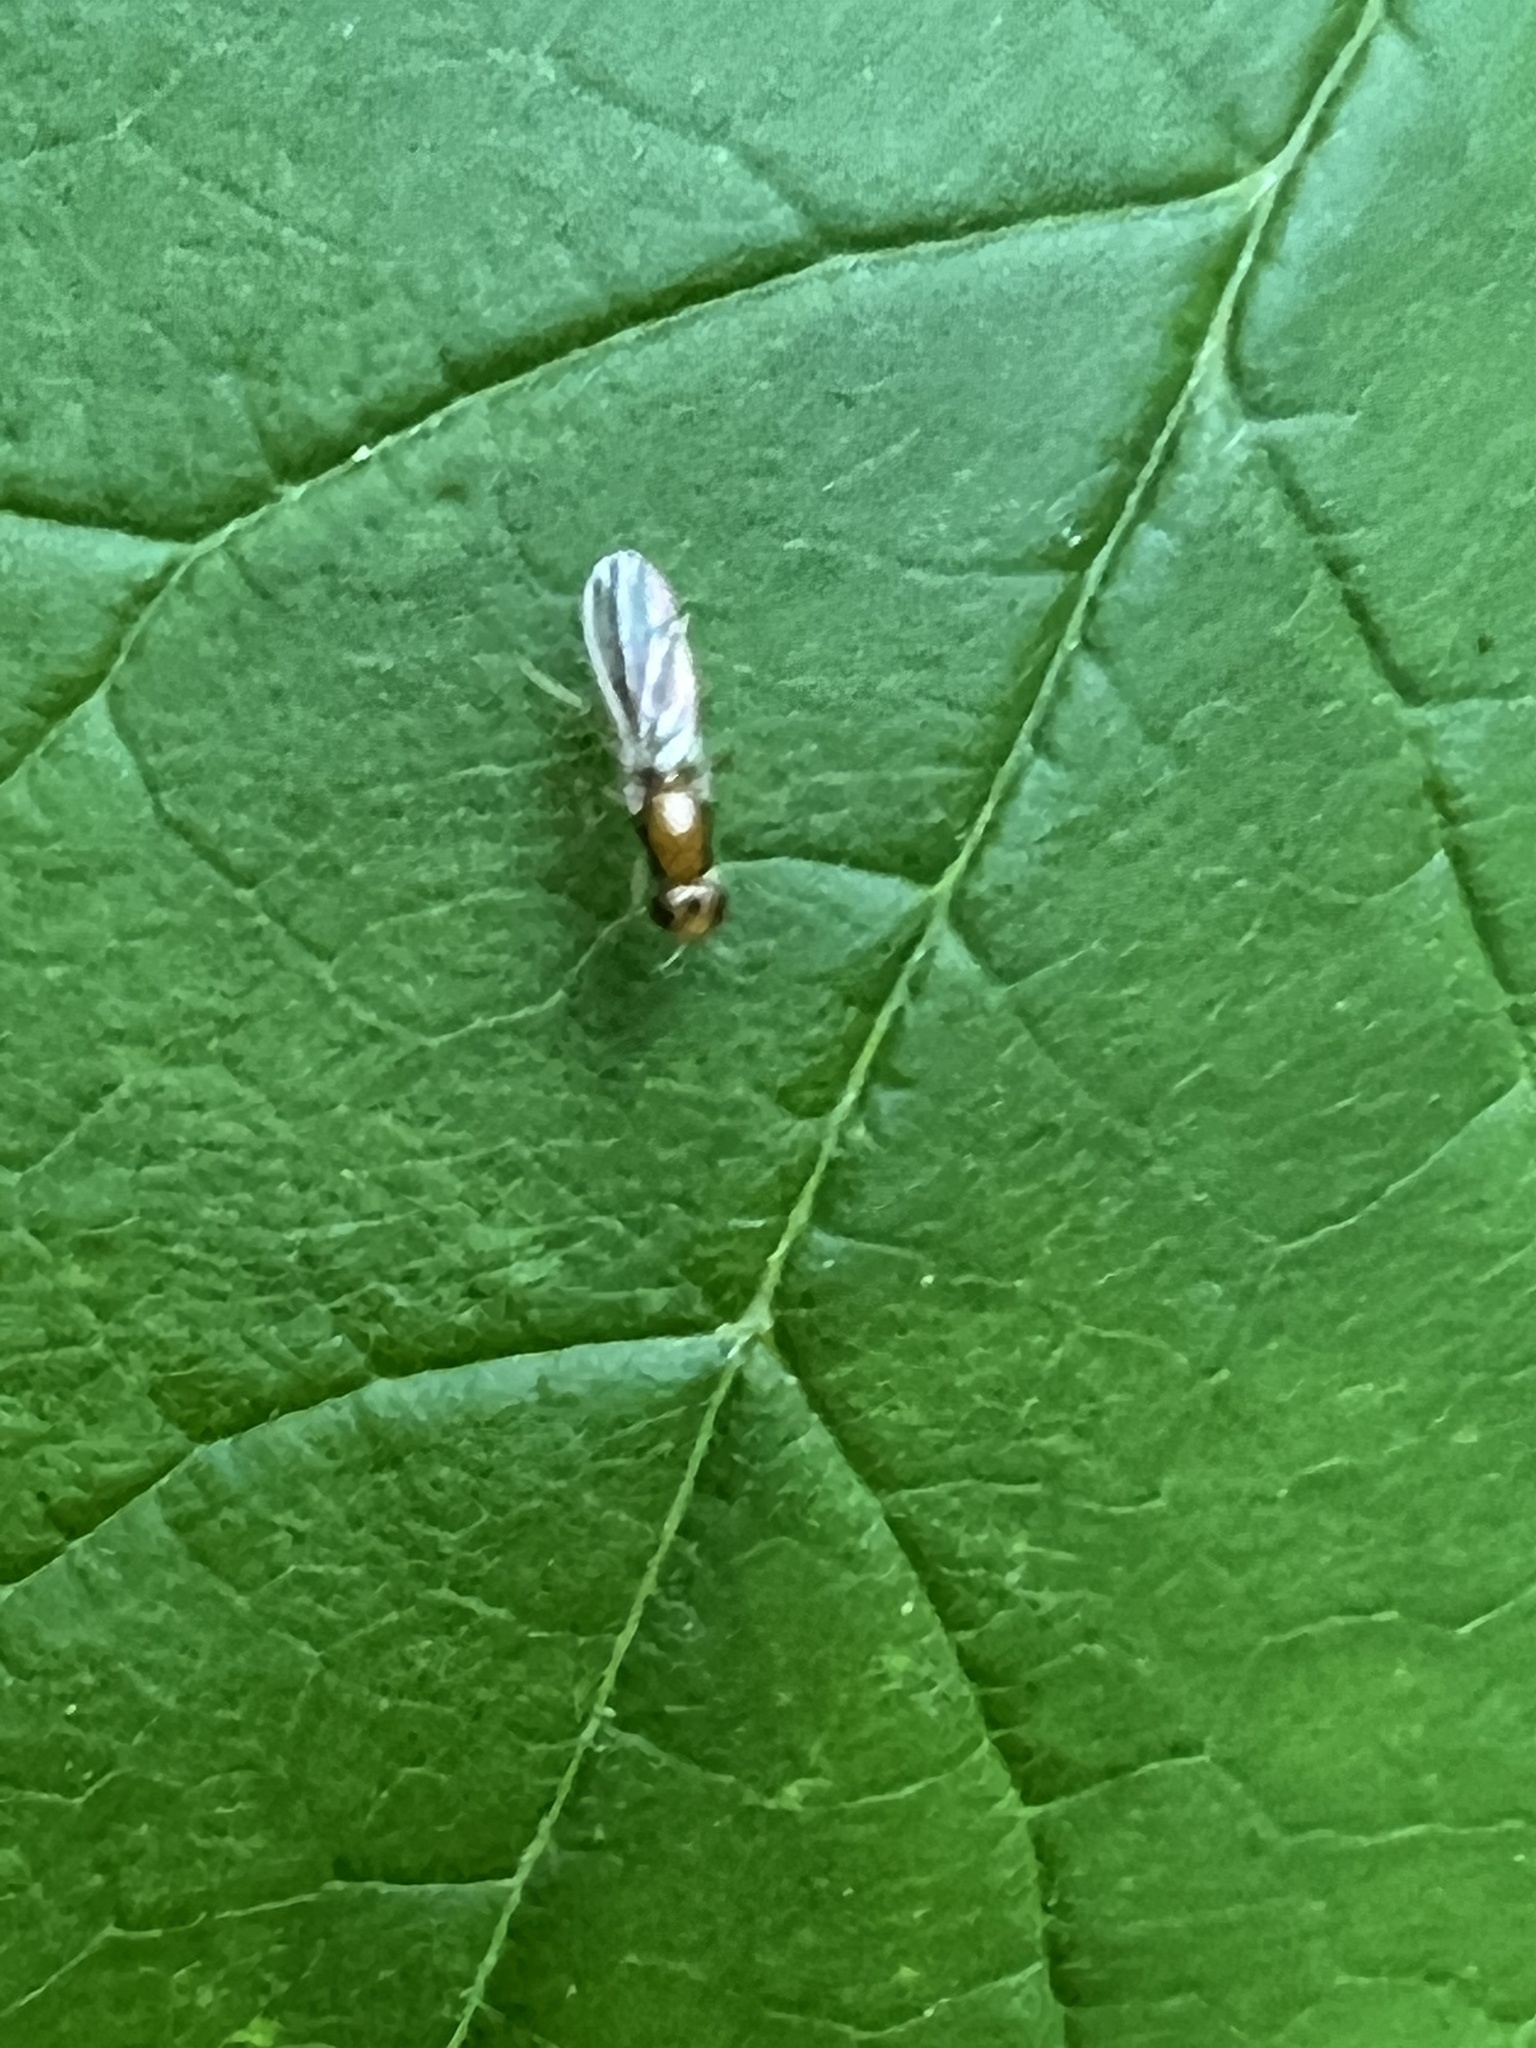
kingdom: Animalia
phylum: Arthropoda
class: Insecta
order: Diptera
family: Psilidae
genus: Psila
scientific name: Psila lateralis
